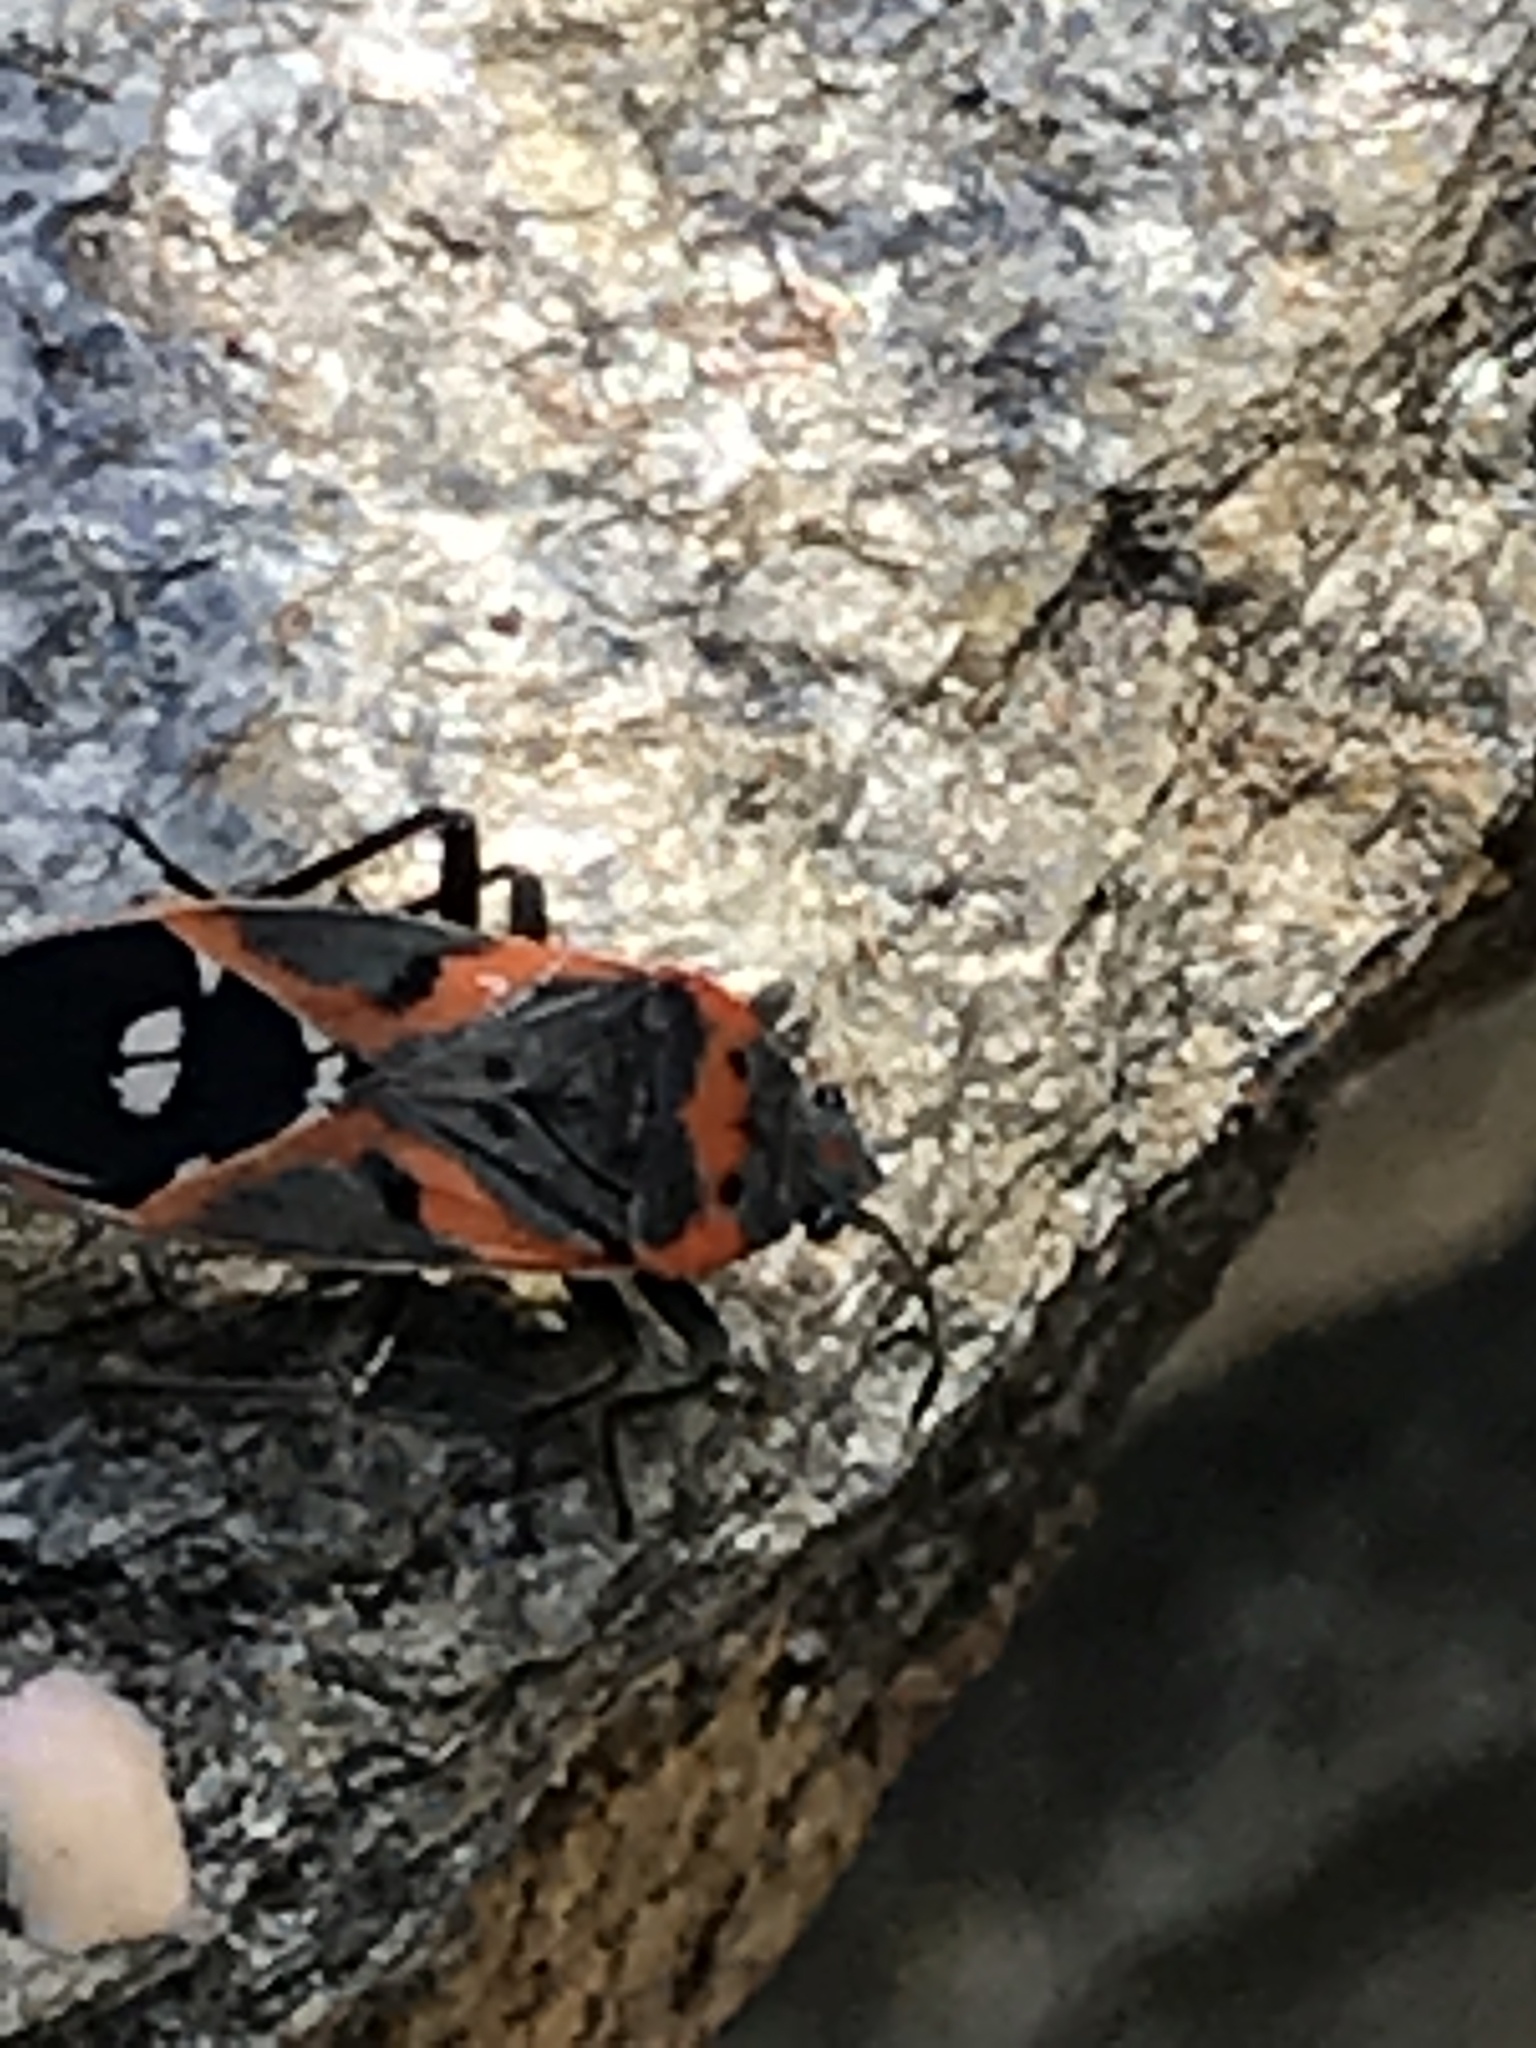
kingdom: Animalia
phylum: Arthropoda
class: Insecta
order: Hemiptera
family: Lygaeidae
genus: Lygaeus
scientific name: Lygaeus kalmii
